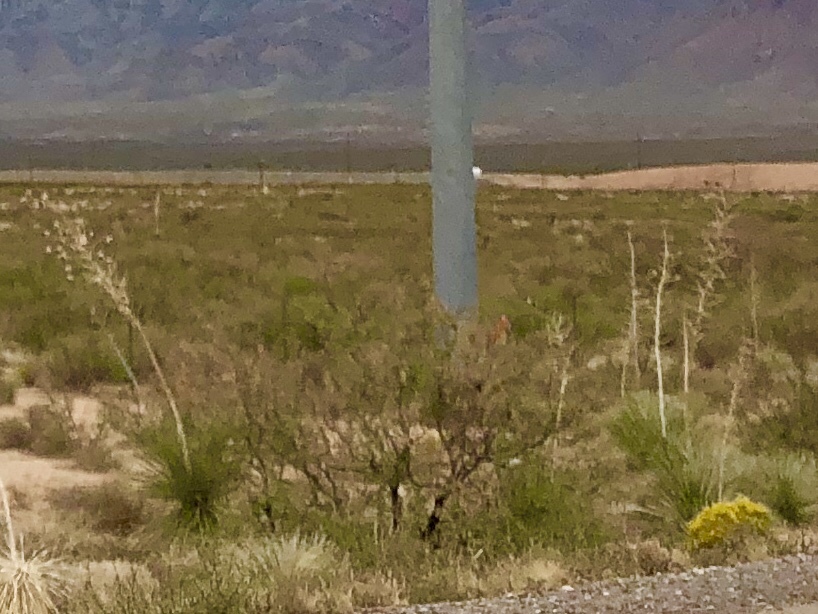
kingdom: Plantae
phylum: Tracheophyta
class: Liliopsida
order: Asparagales
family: Asparagaceae
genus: Yucca
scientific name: Yucca elata
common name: Palmella
